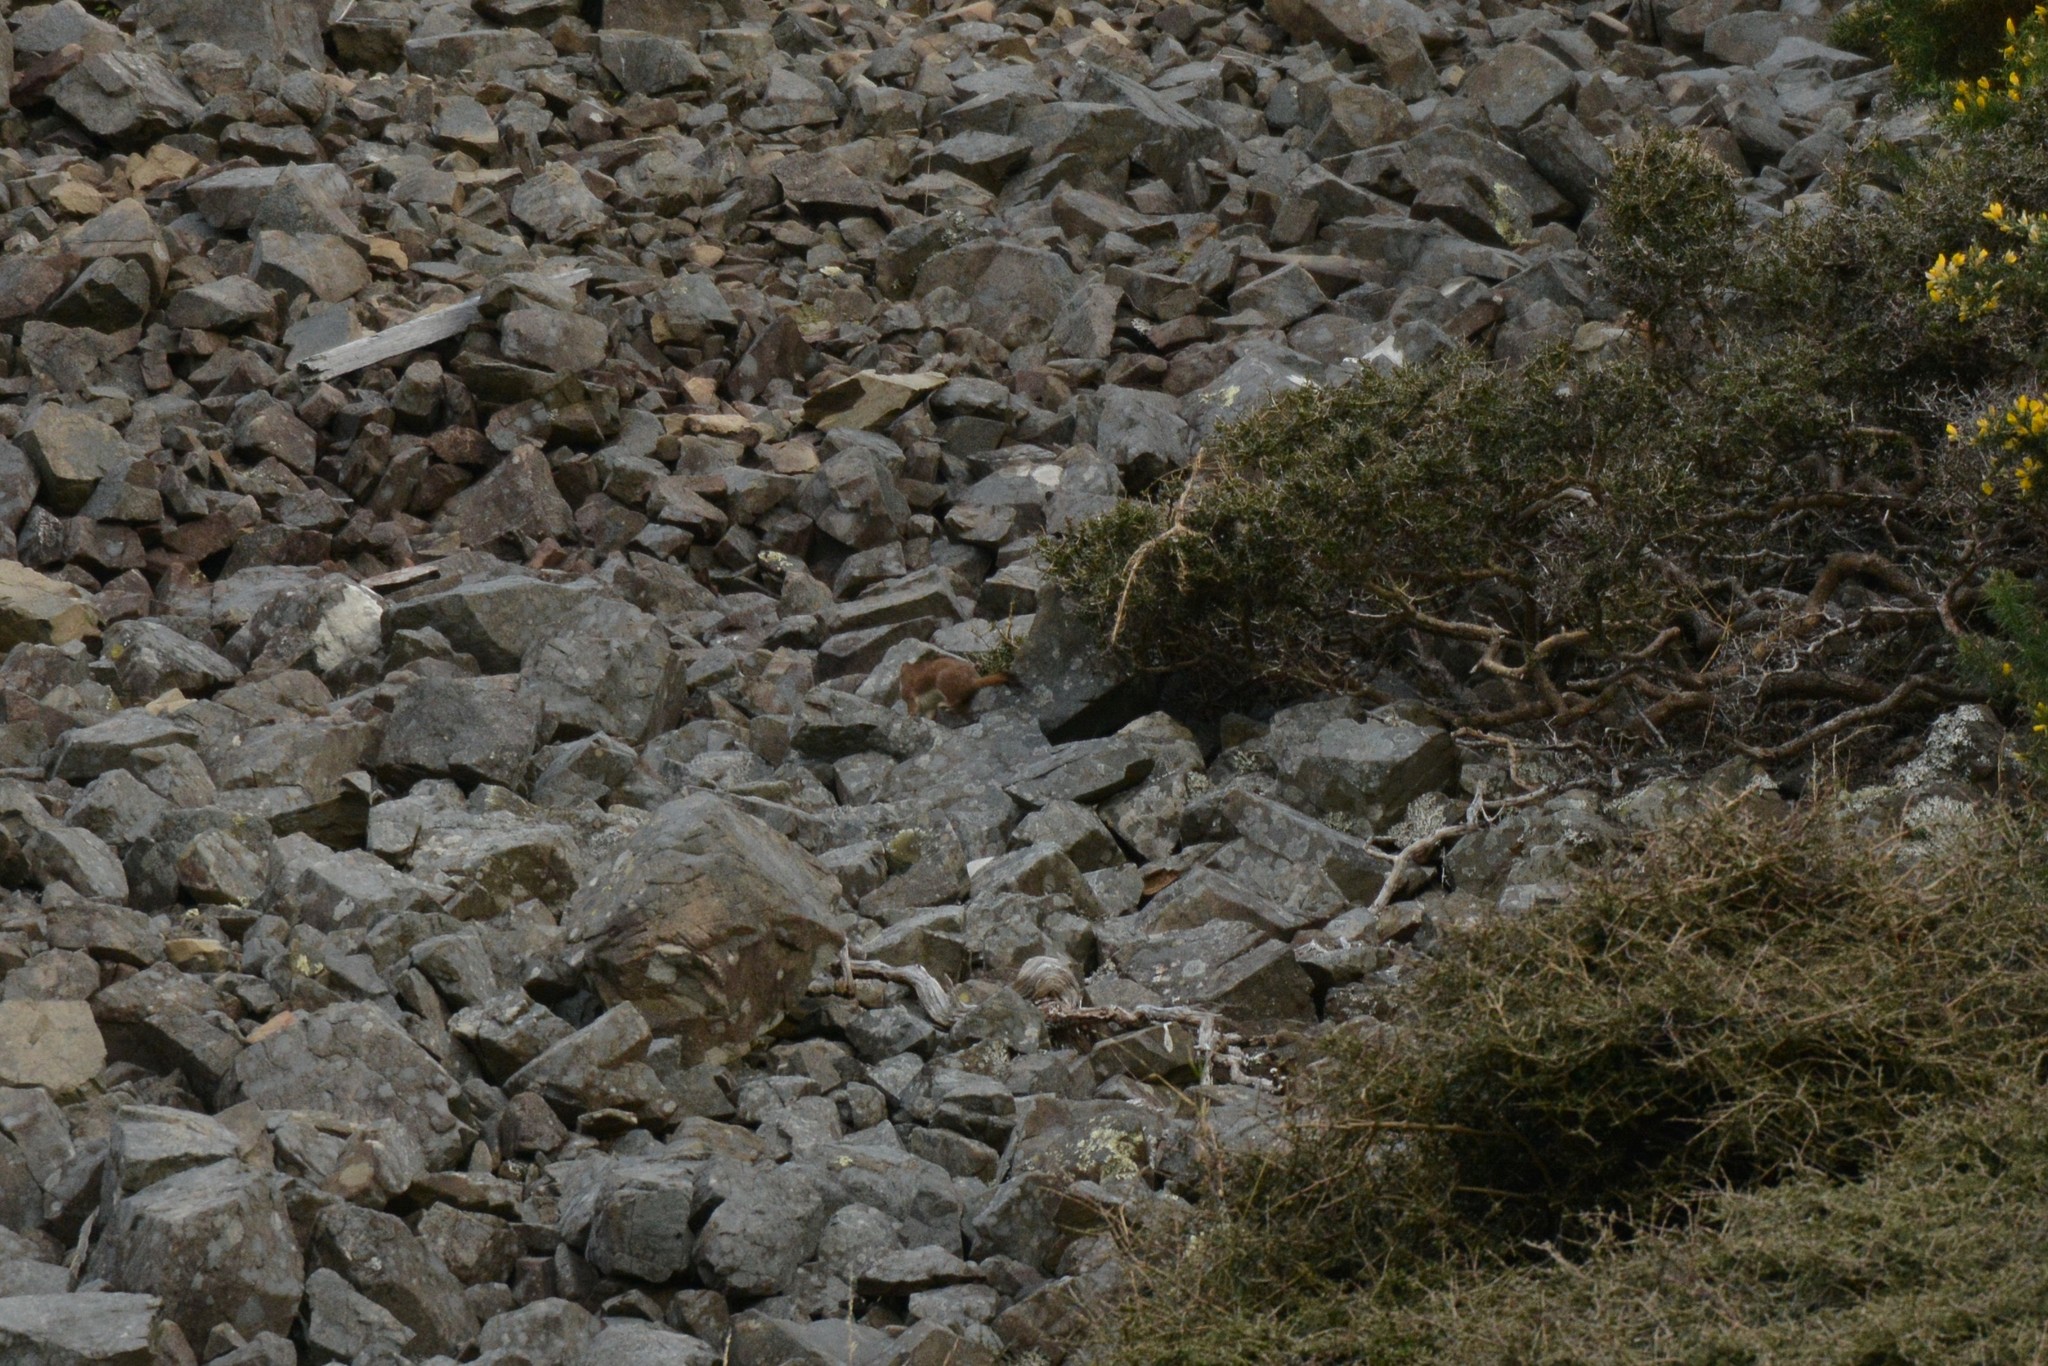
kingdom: Animalia
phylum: Chordata
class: Mammalia
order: Carnivora
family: Mustelidae
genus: Mustela
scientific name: Mustela erminea
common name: Stoat
